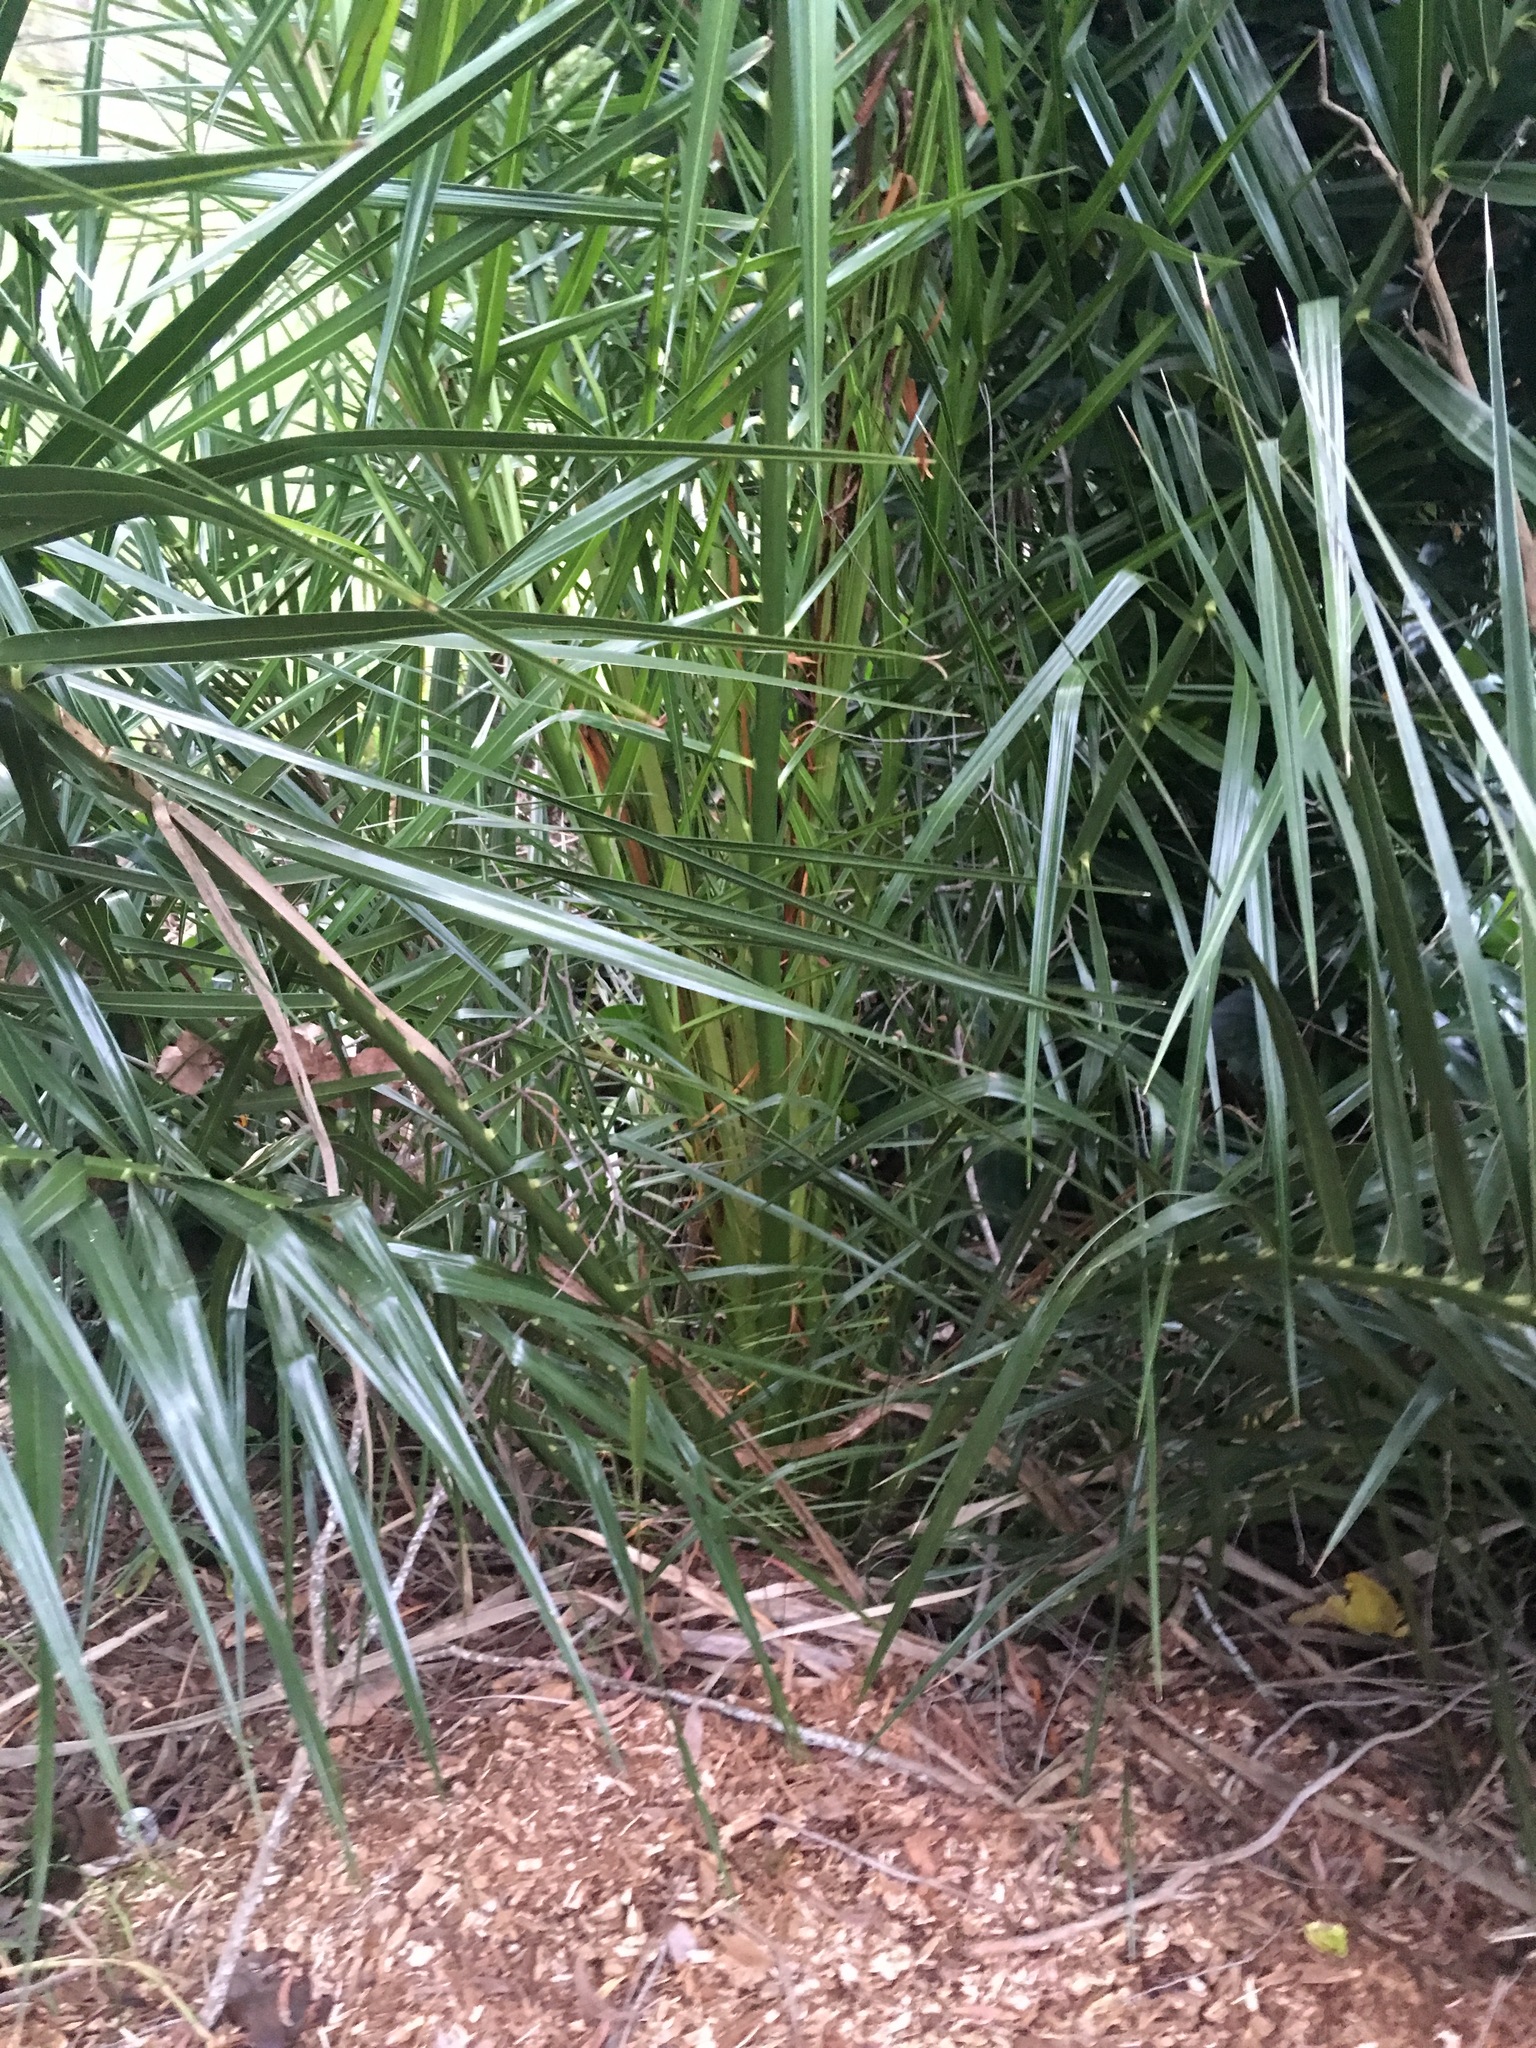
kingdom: Plantae
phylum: Tracheophyta
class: Liliopsida
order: Arecales
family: Arecaceae
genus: Phoenix
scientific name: Phoenix canariensis
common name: Canary island date palm
